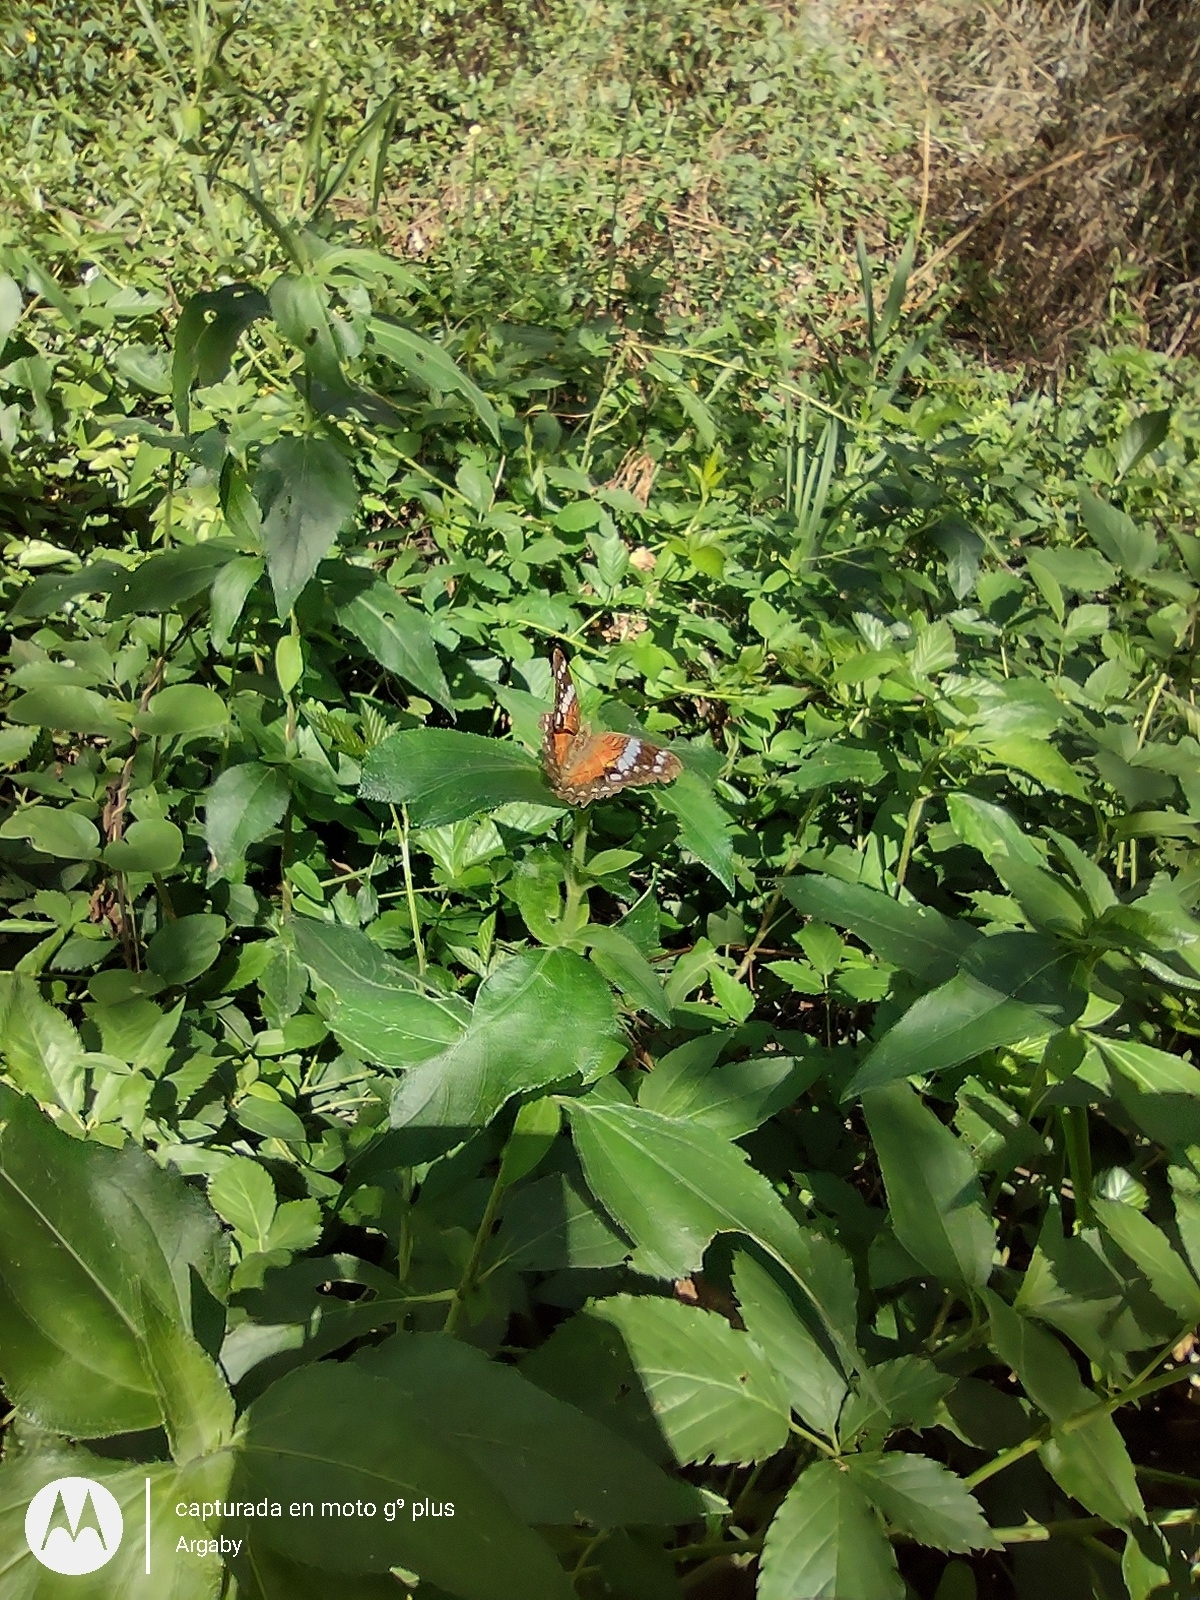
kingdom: Animalia
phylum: Arthropoda
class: Insecta
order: Lepidoptera
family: Nymphalidae
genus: Anartia
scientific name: Anartia amathea
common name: Red peacock
